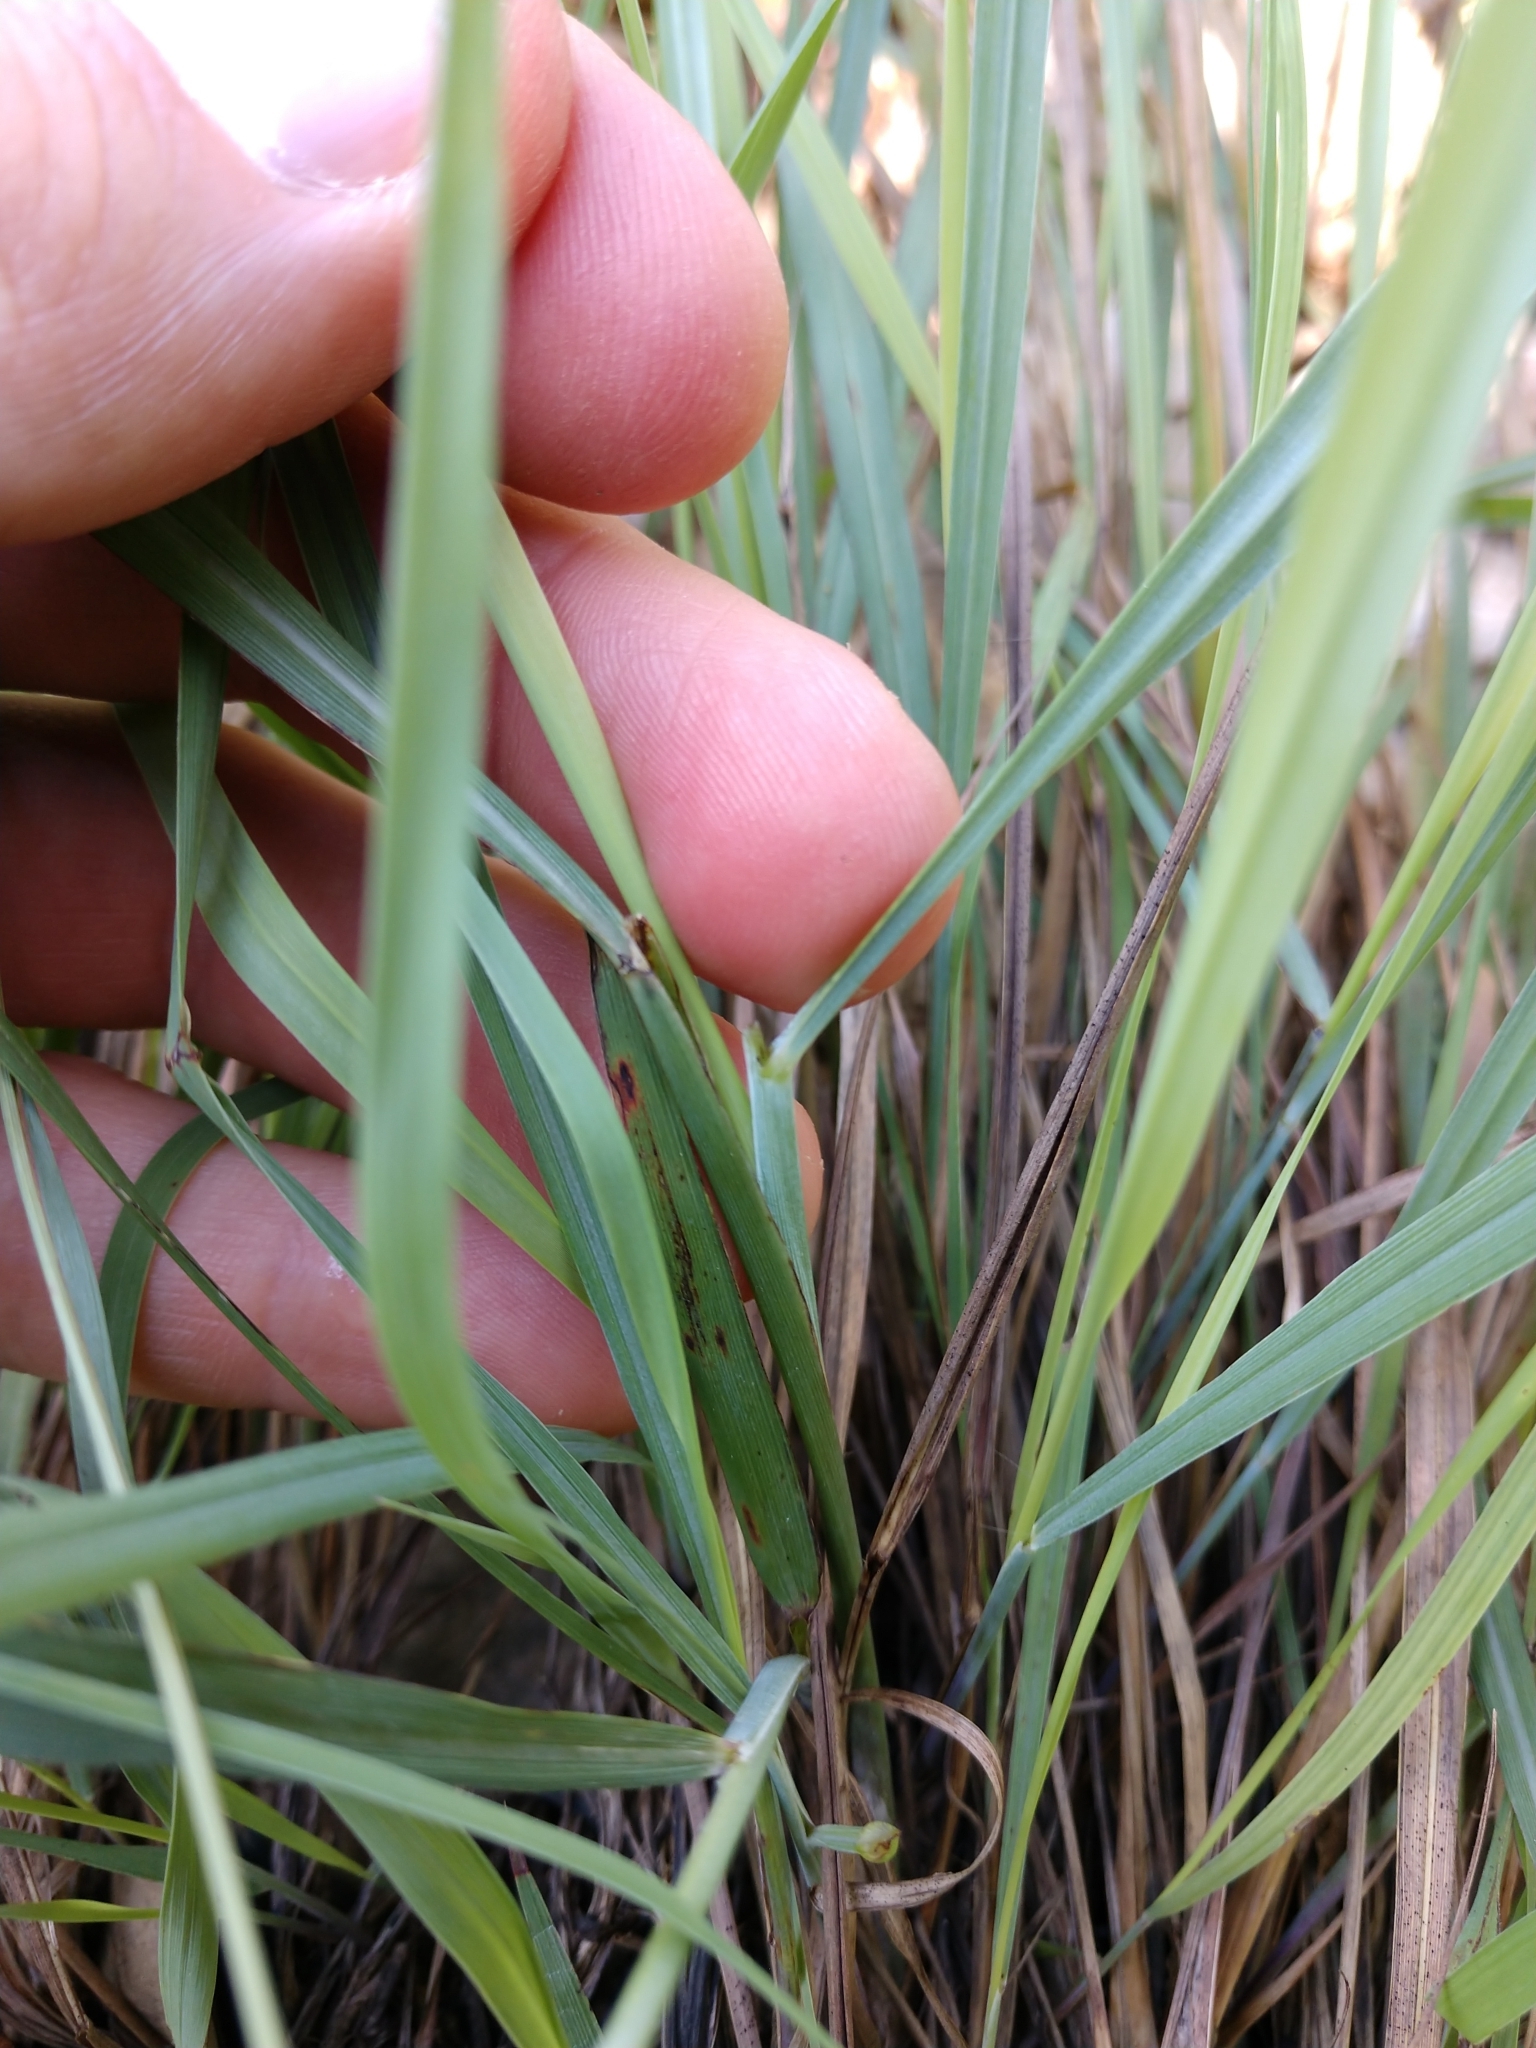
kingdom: Plantae
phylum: Tracheophyta
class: Liliopsida
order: Poales
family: Poaceae
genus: Sorghastrum
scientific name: Sorghastrum nutans
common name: Indian grass
